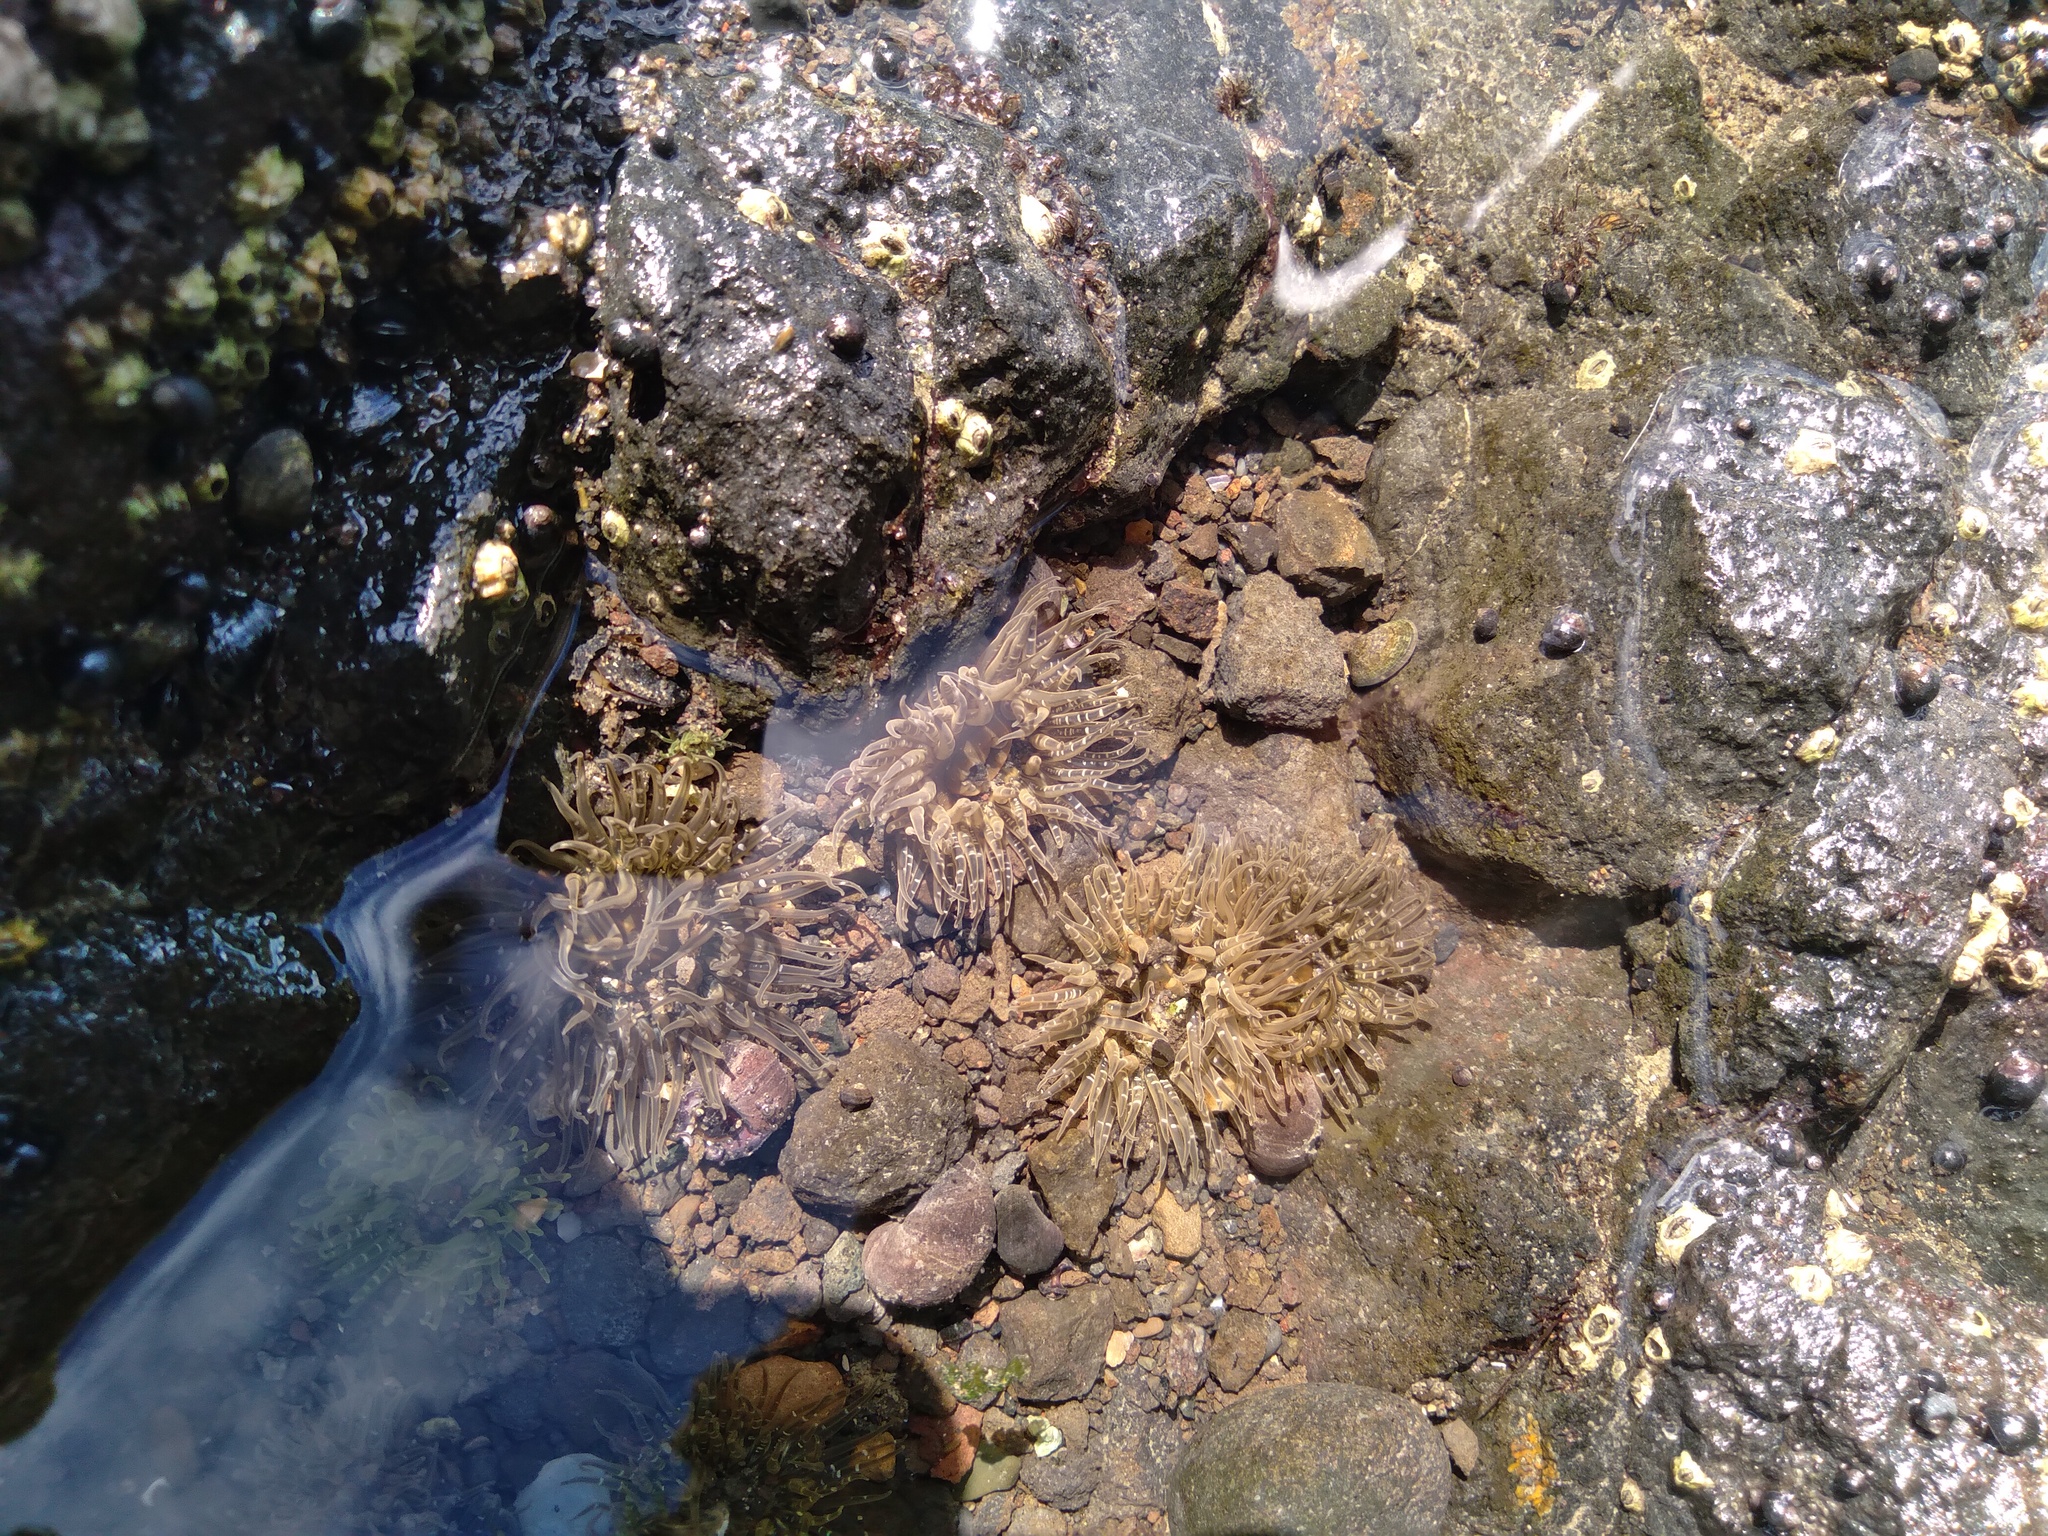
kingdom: Animalia
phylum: Cnidaria
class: Anthozoa
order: Actiniaria
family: Actiniidae
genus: Oulactis
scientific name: Oulactis orientalis
